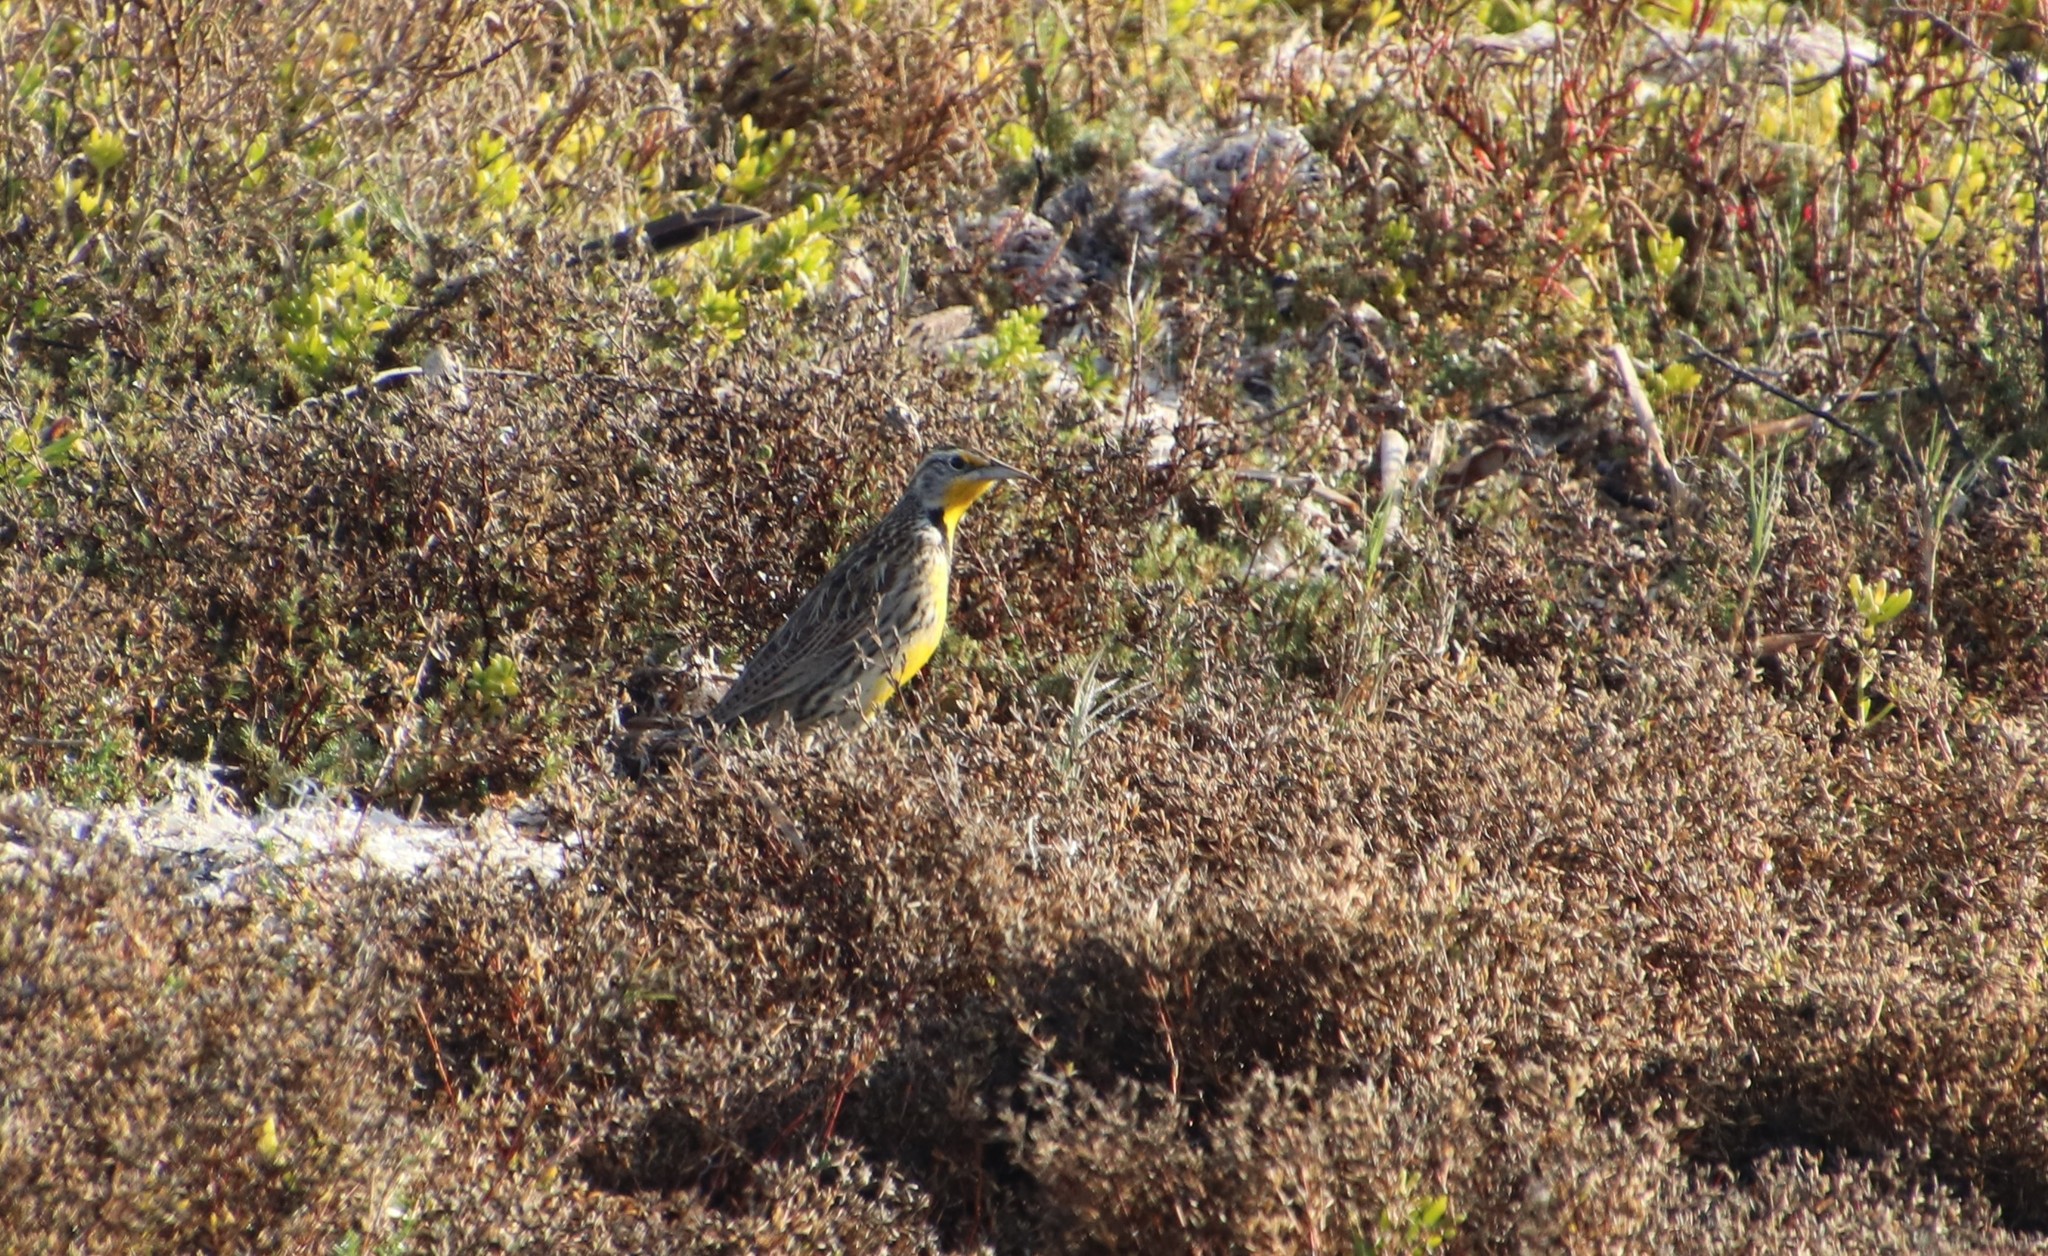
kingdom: Animalia
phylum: Chordata
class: Aves
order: Passeriformes
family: Icteridae
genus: Sturnella
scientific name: Sturnella neglecta
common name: Western meadowlark
